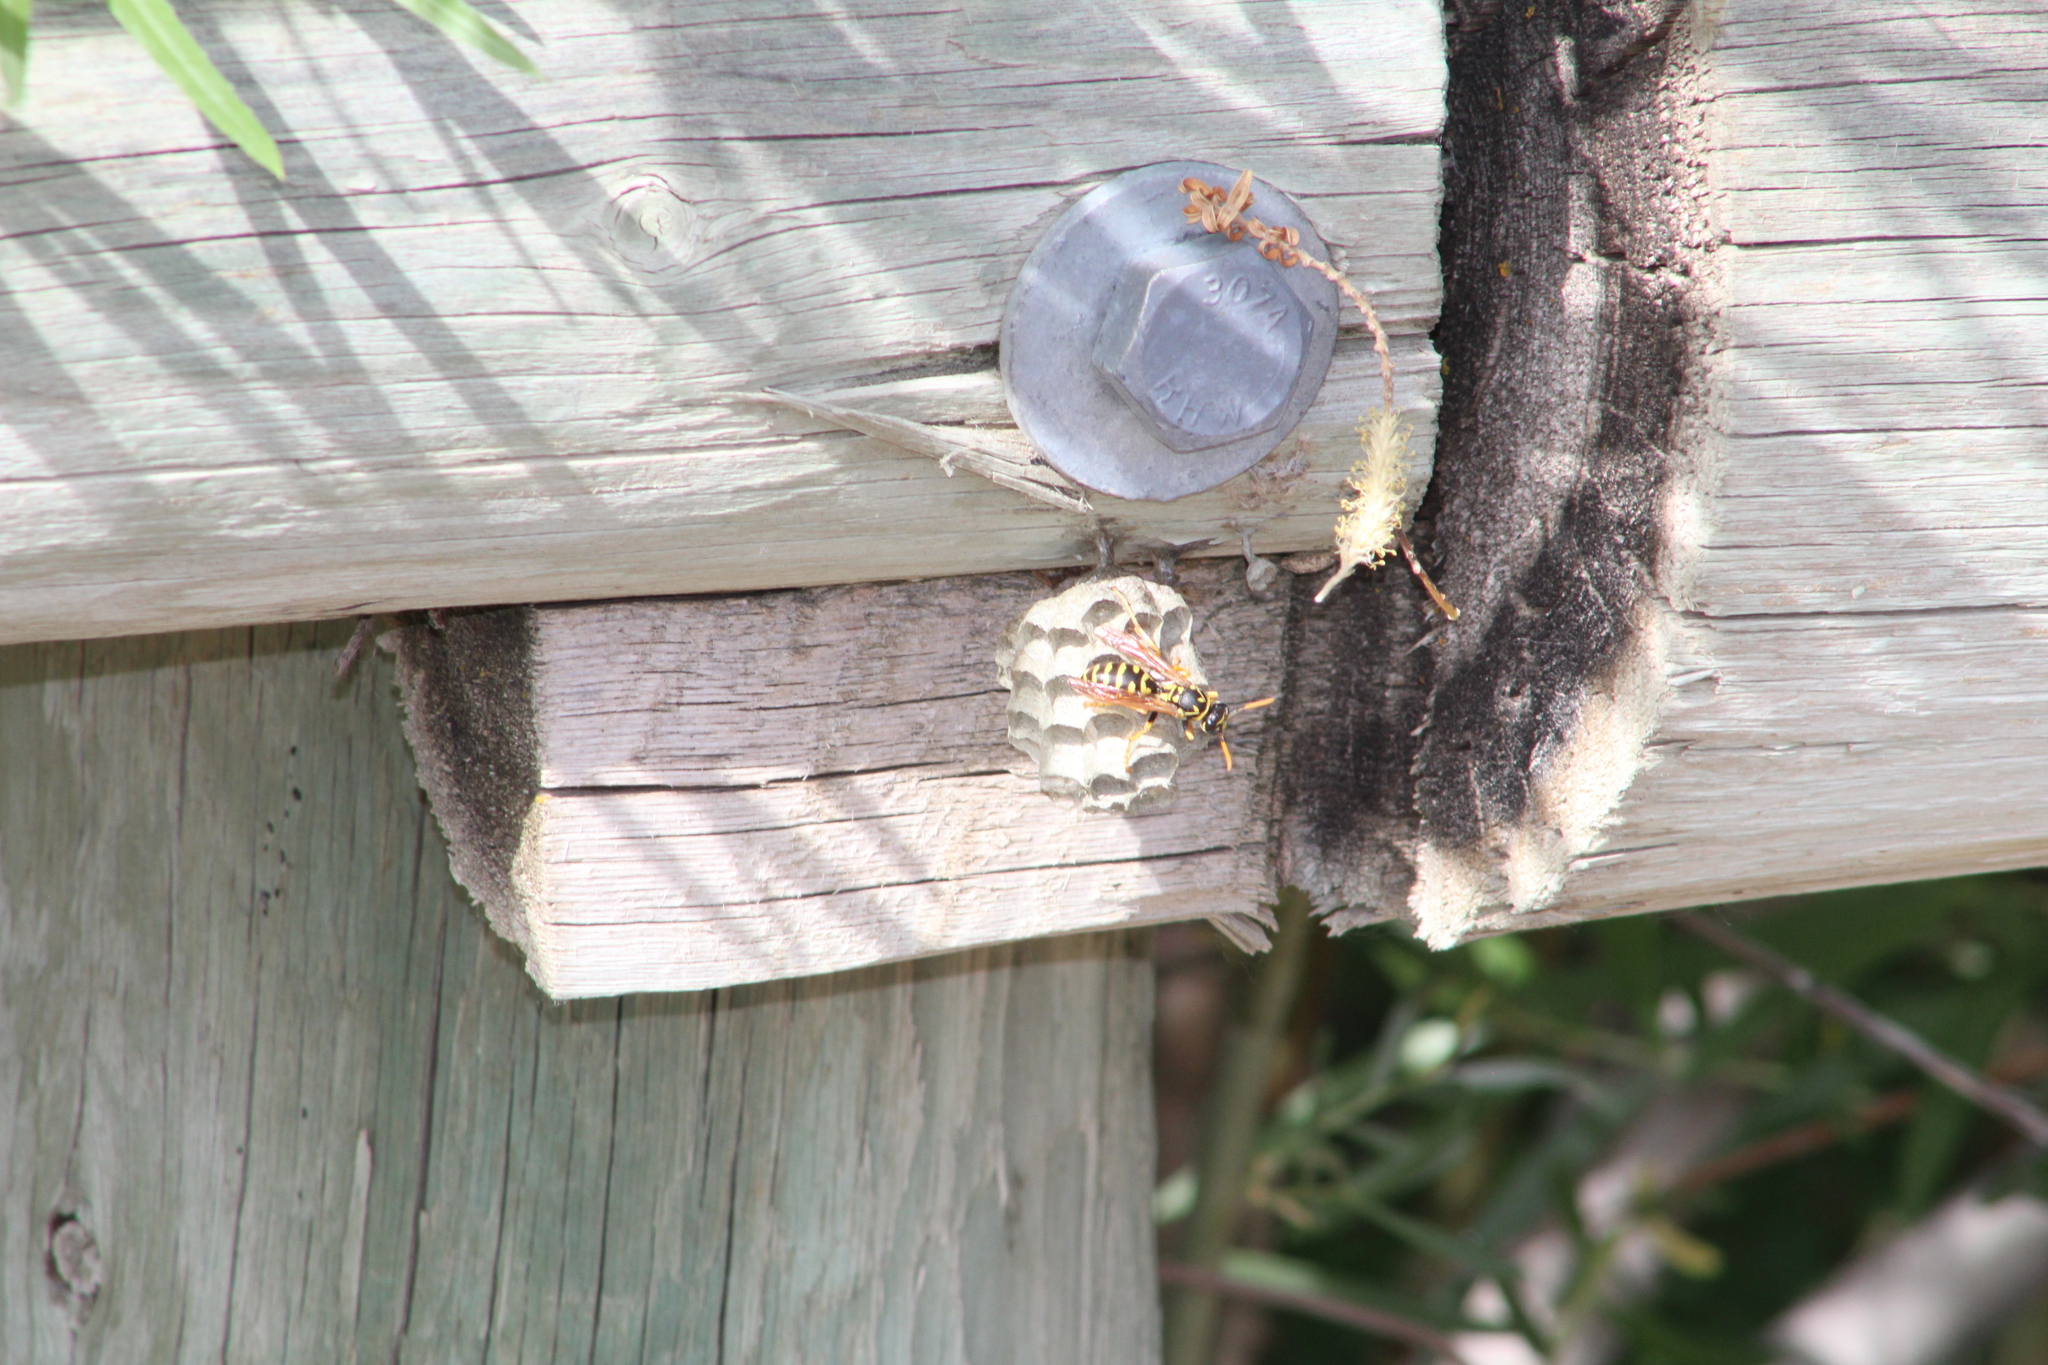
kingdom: Animalia
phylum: Arthropoda
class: Insecta
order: Hymenoptera
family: Eumenidae
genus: Polistes
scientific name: Polistes dominula
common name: Paper wasp
